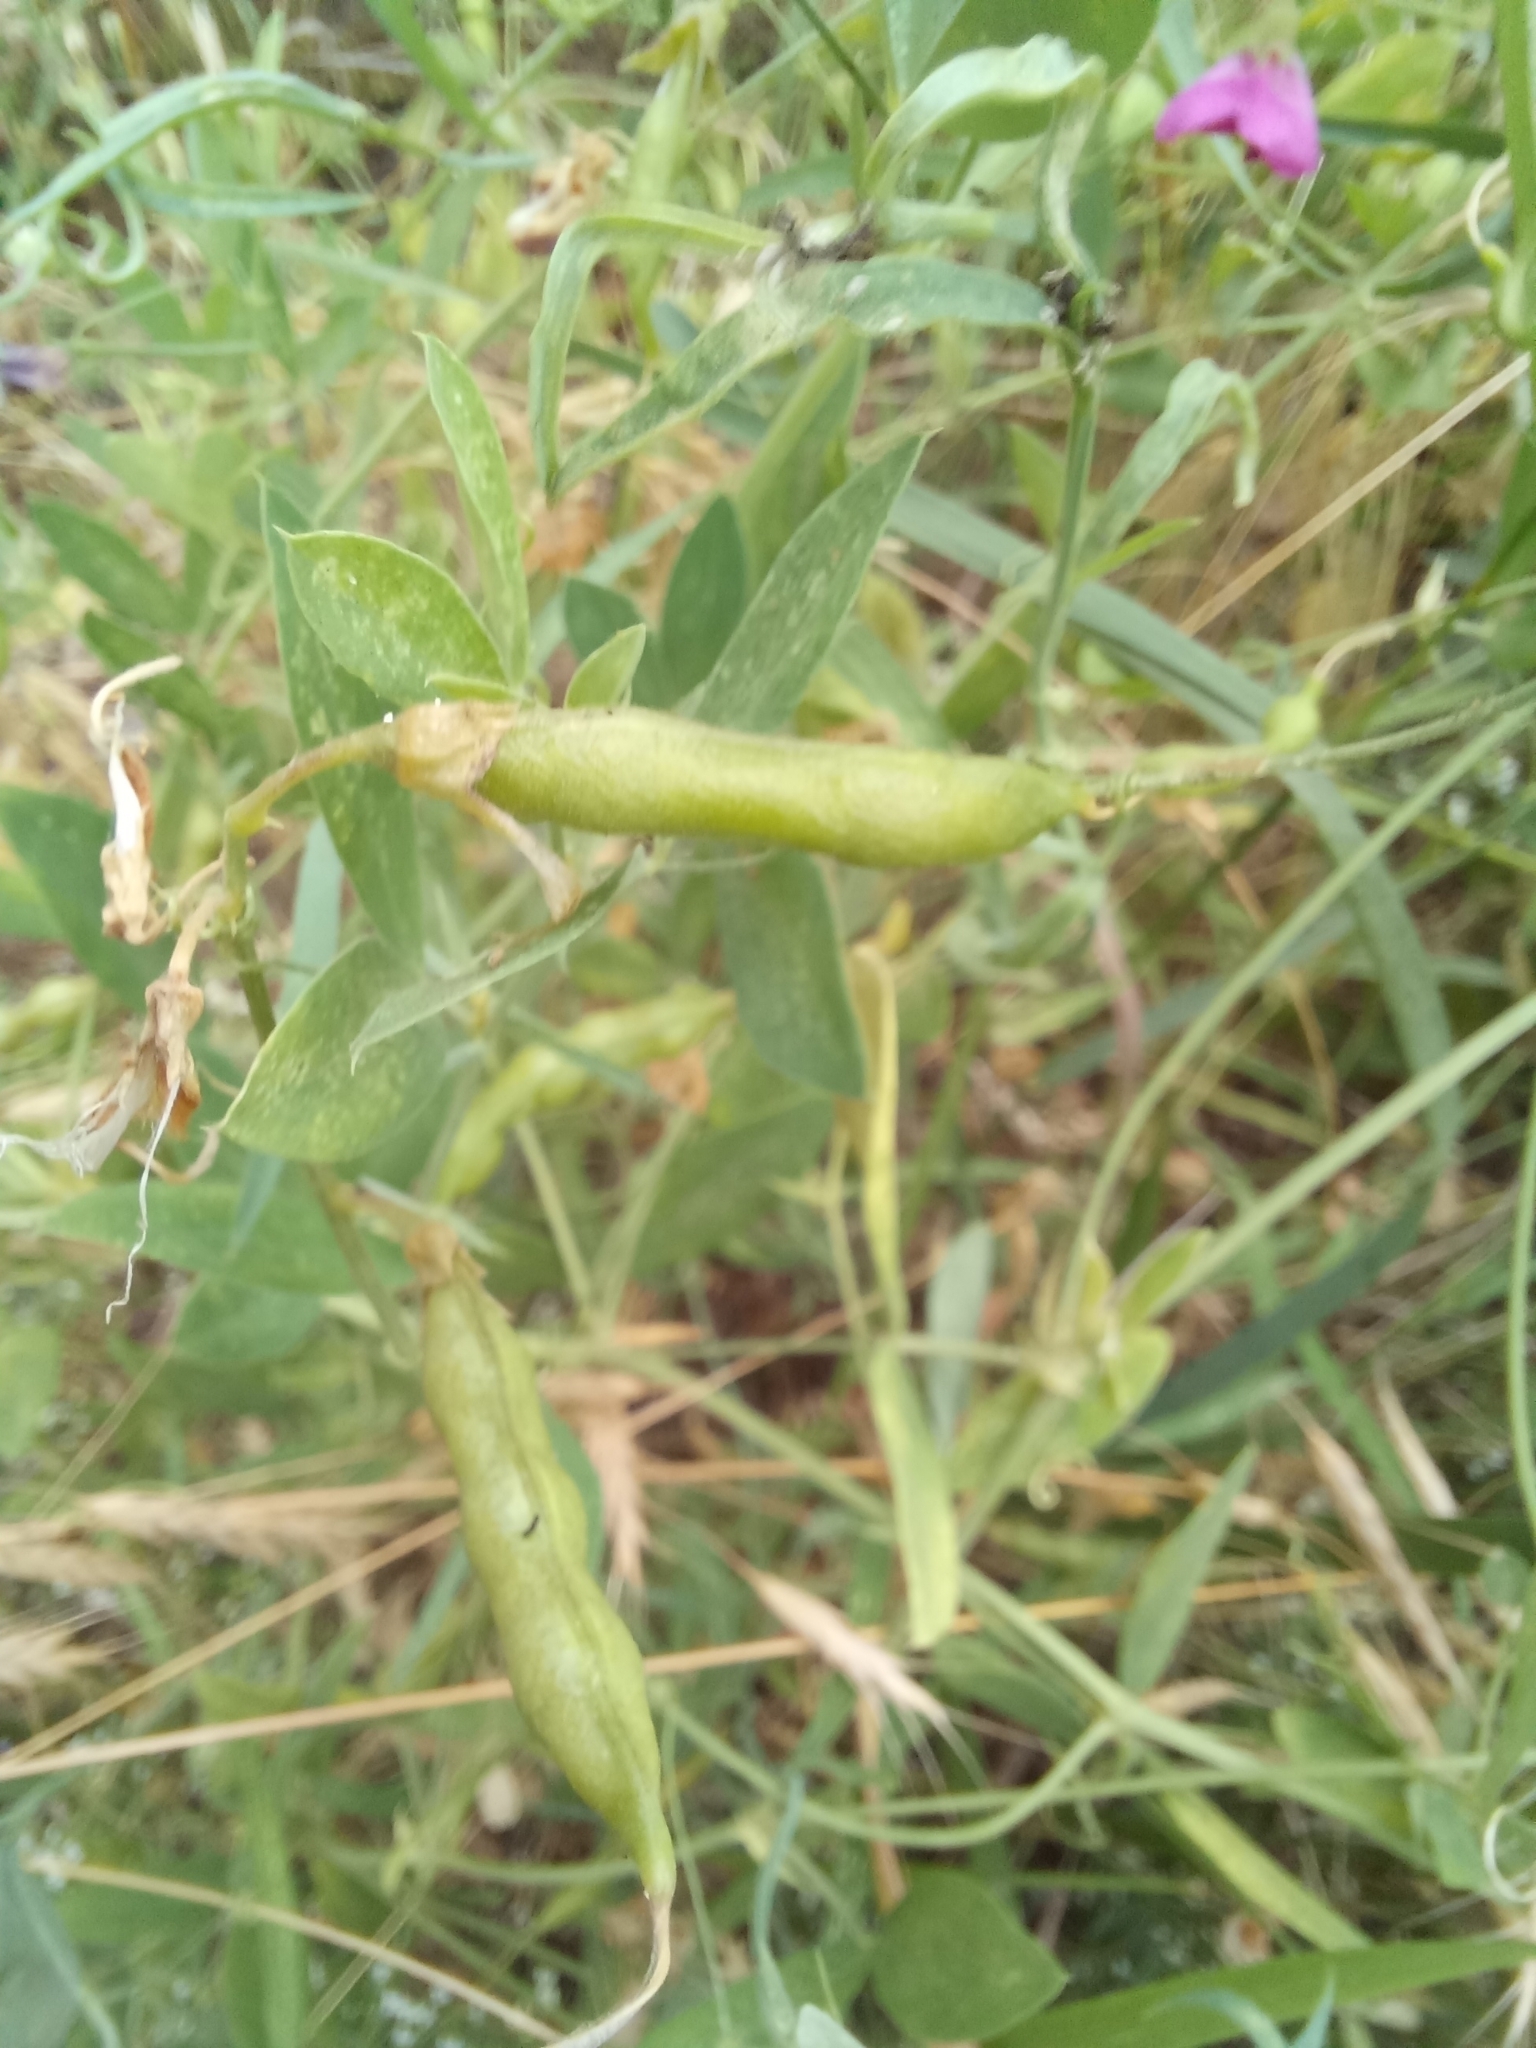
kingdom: Plantae
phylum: Tracheophyta
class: Magnoliopsida
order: Fabales
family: Fabaceae
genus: Lathyrus
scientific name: Lathyrus tuberosus
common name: Tuberous pea
